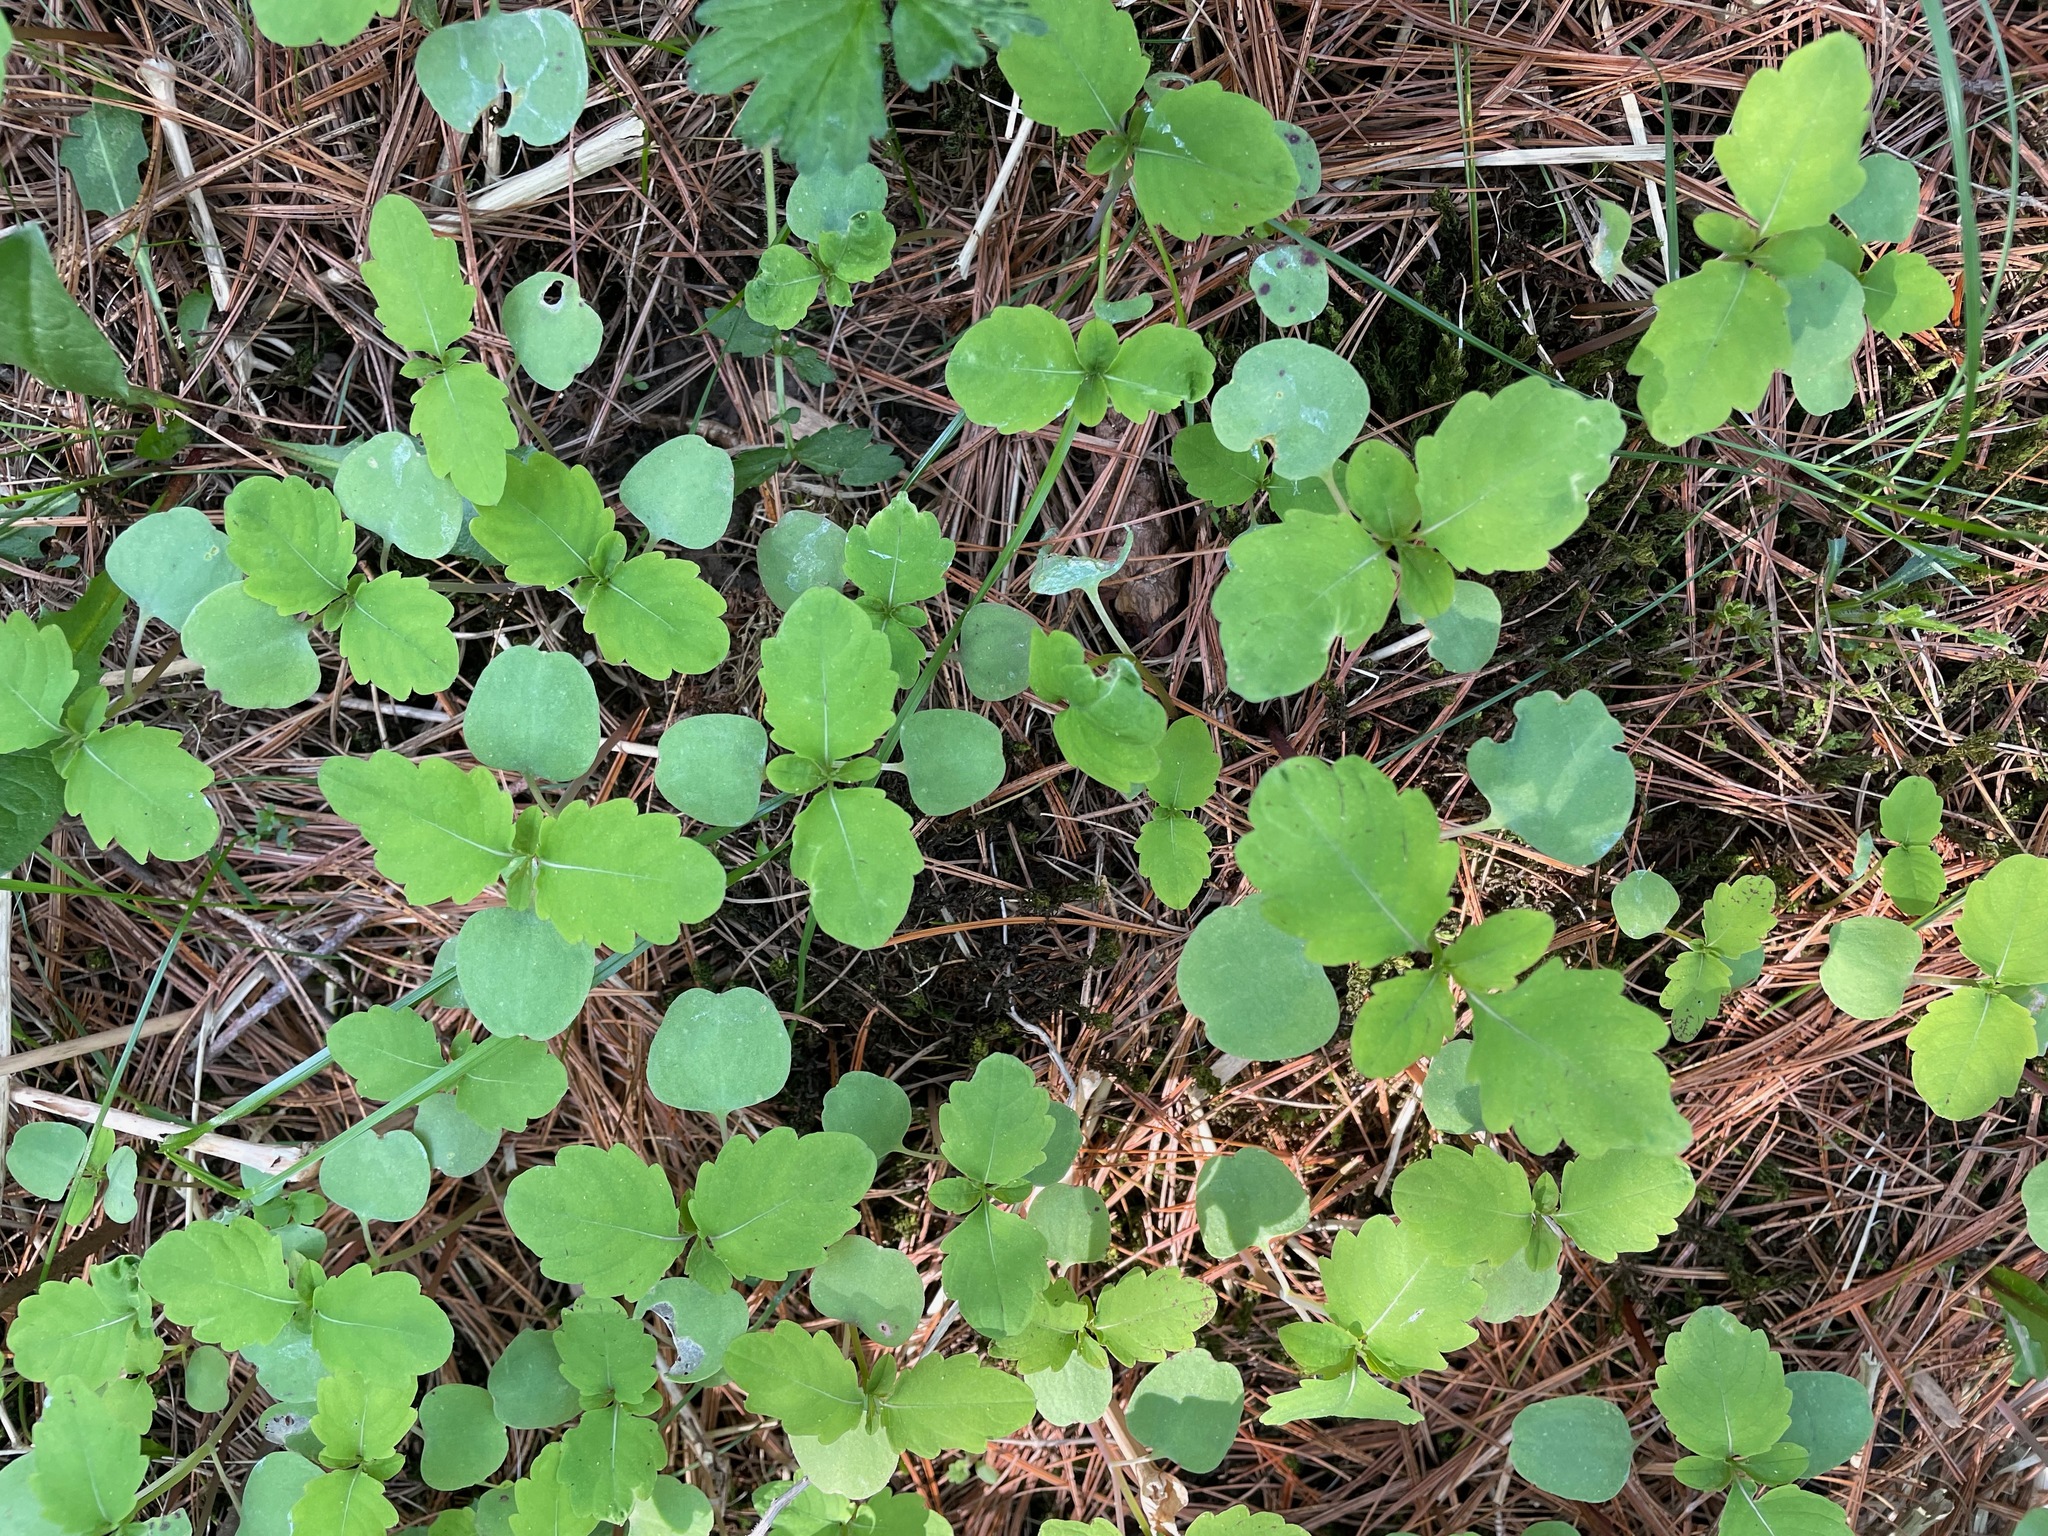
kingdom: Plantae
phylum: Tracheophyta
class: Magnoliopsida
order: Ericales
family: Balsaminaceae
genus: Impatiens
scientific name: Impatiens
